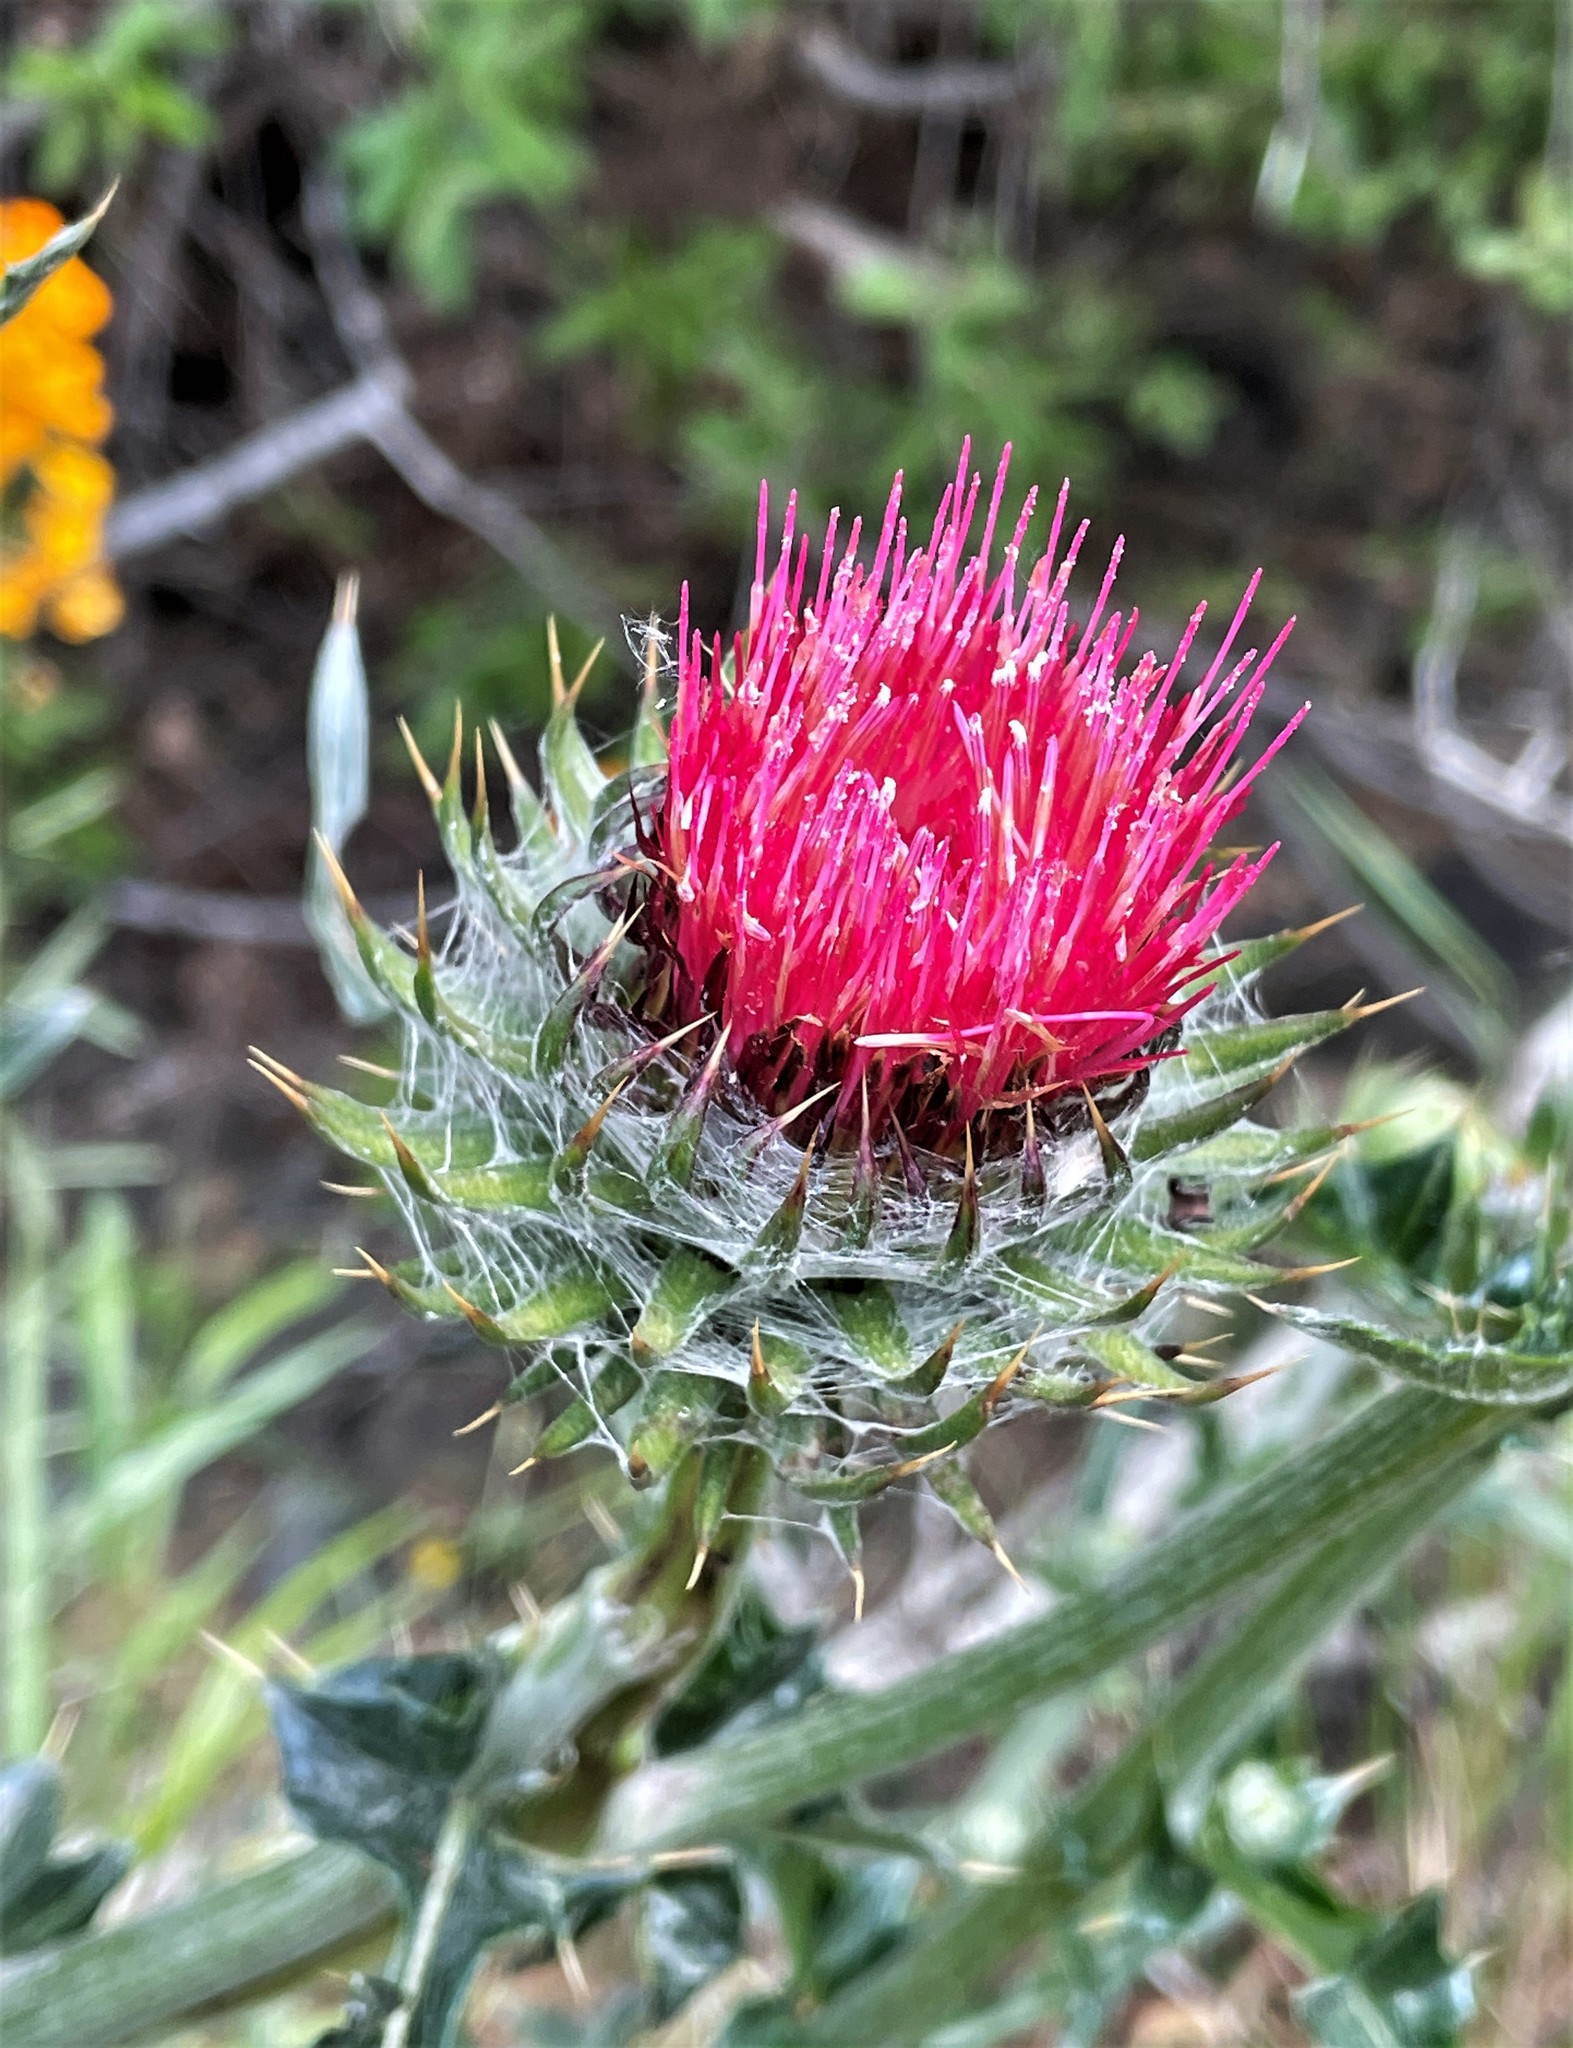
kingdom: Plantae
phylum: Tracheophyta
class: Magnoliopsida
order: Asterales
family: Asteraceae
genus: Cirsium
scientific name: Cirsium occidentale
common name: Western thistle
